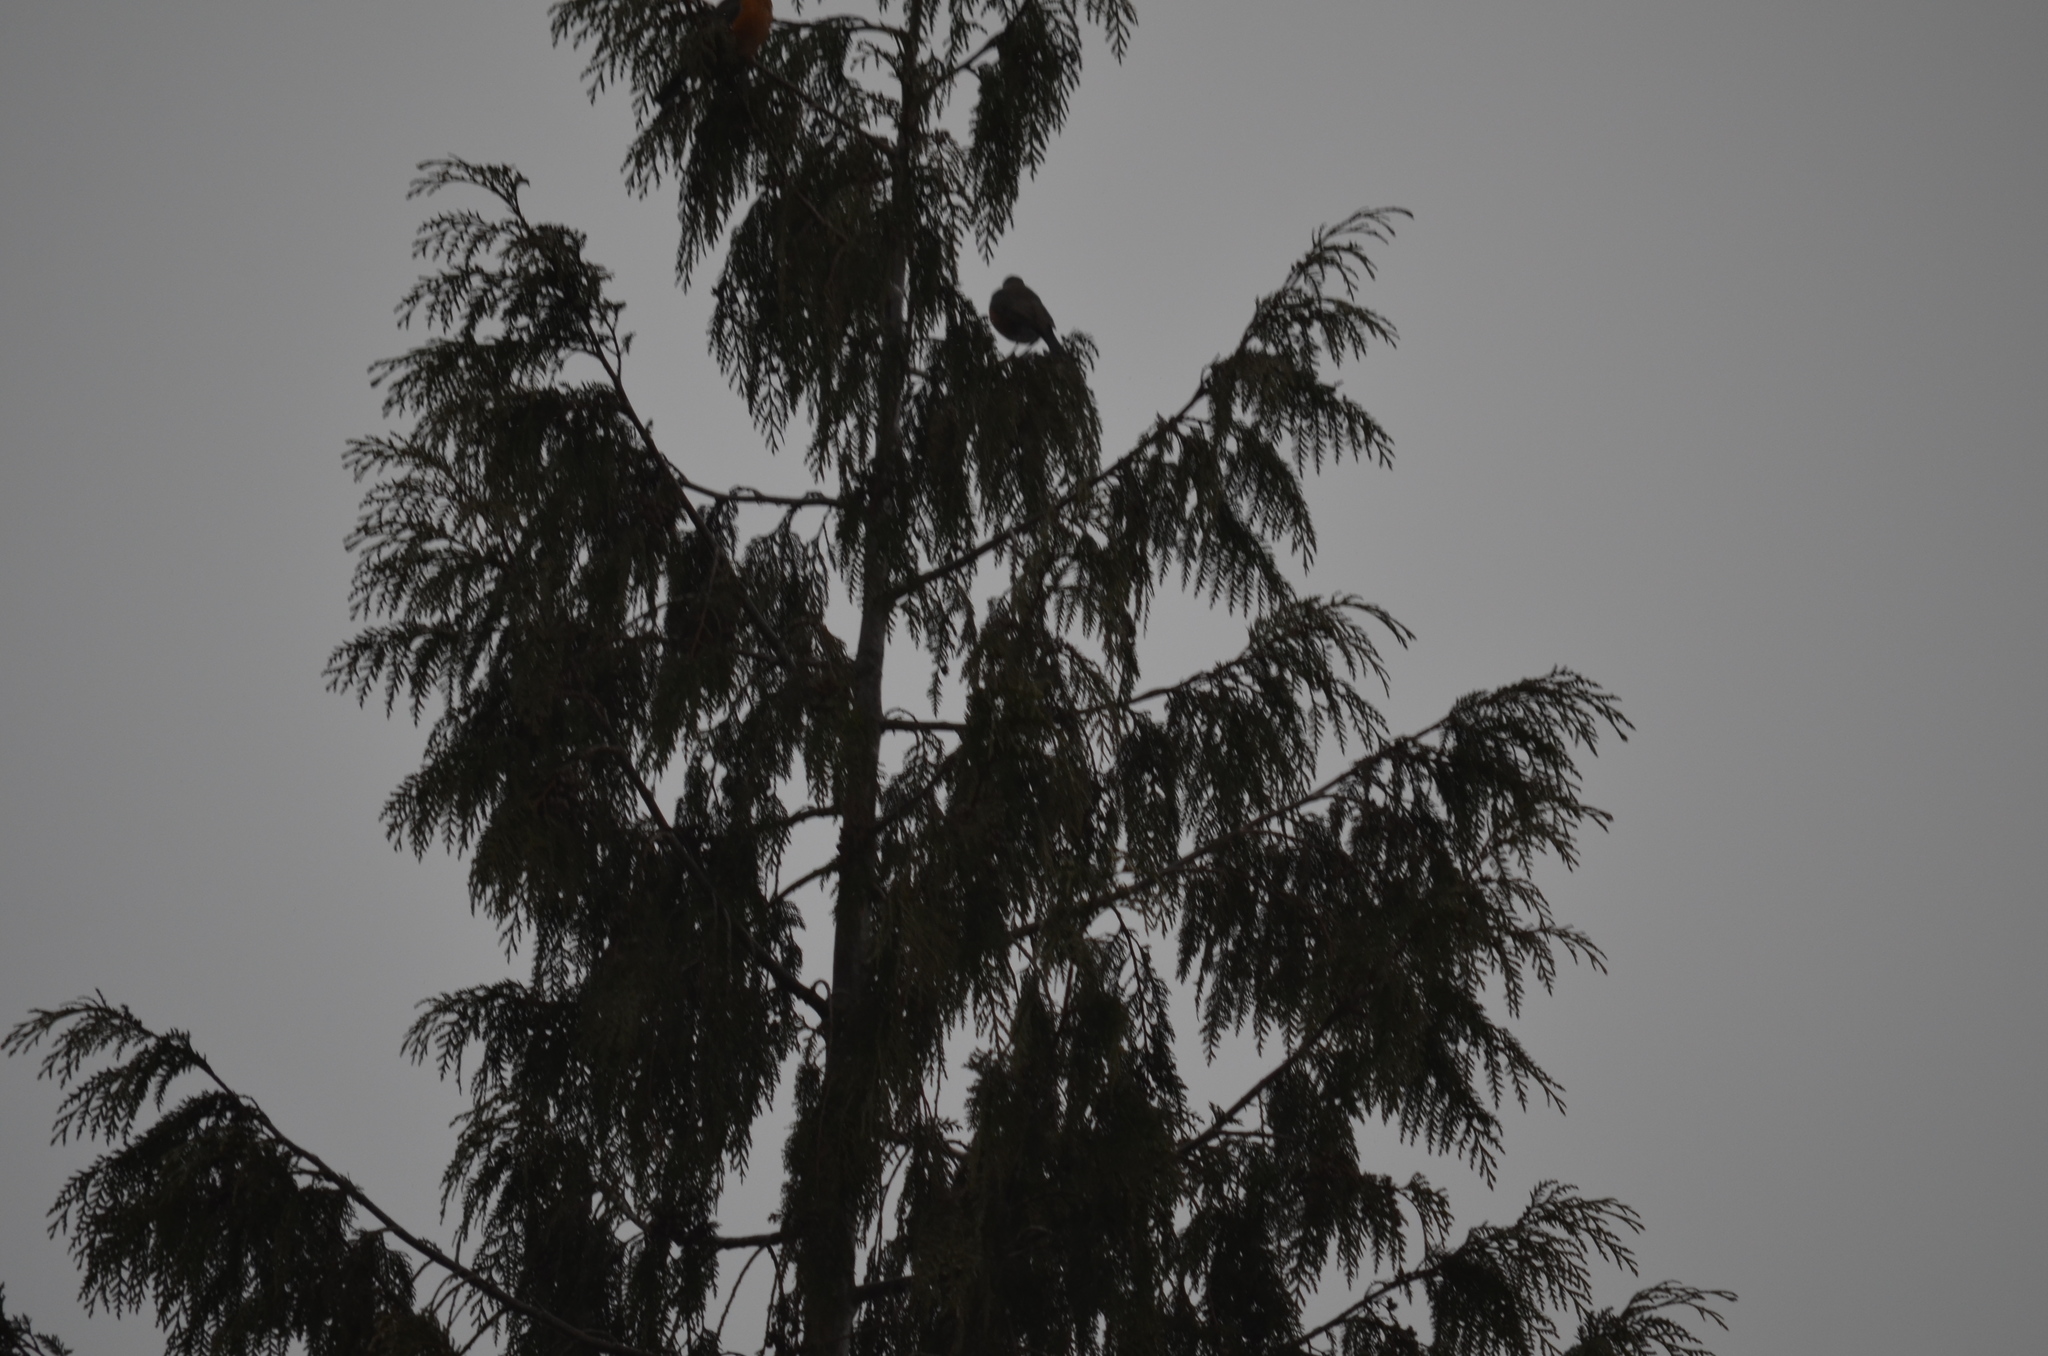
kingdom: Animalia
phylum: Chordata
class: Aves
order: Passeriformes
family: Turdidae
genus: Turdus
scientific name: Turdus migratorius
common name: American robin
